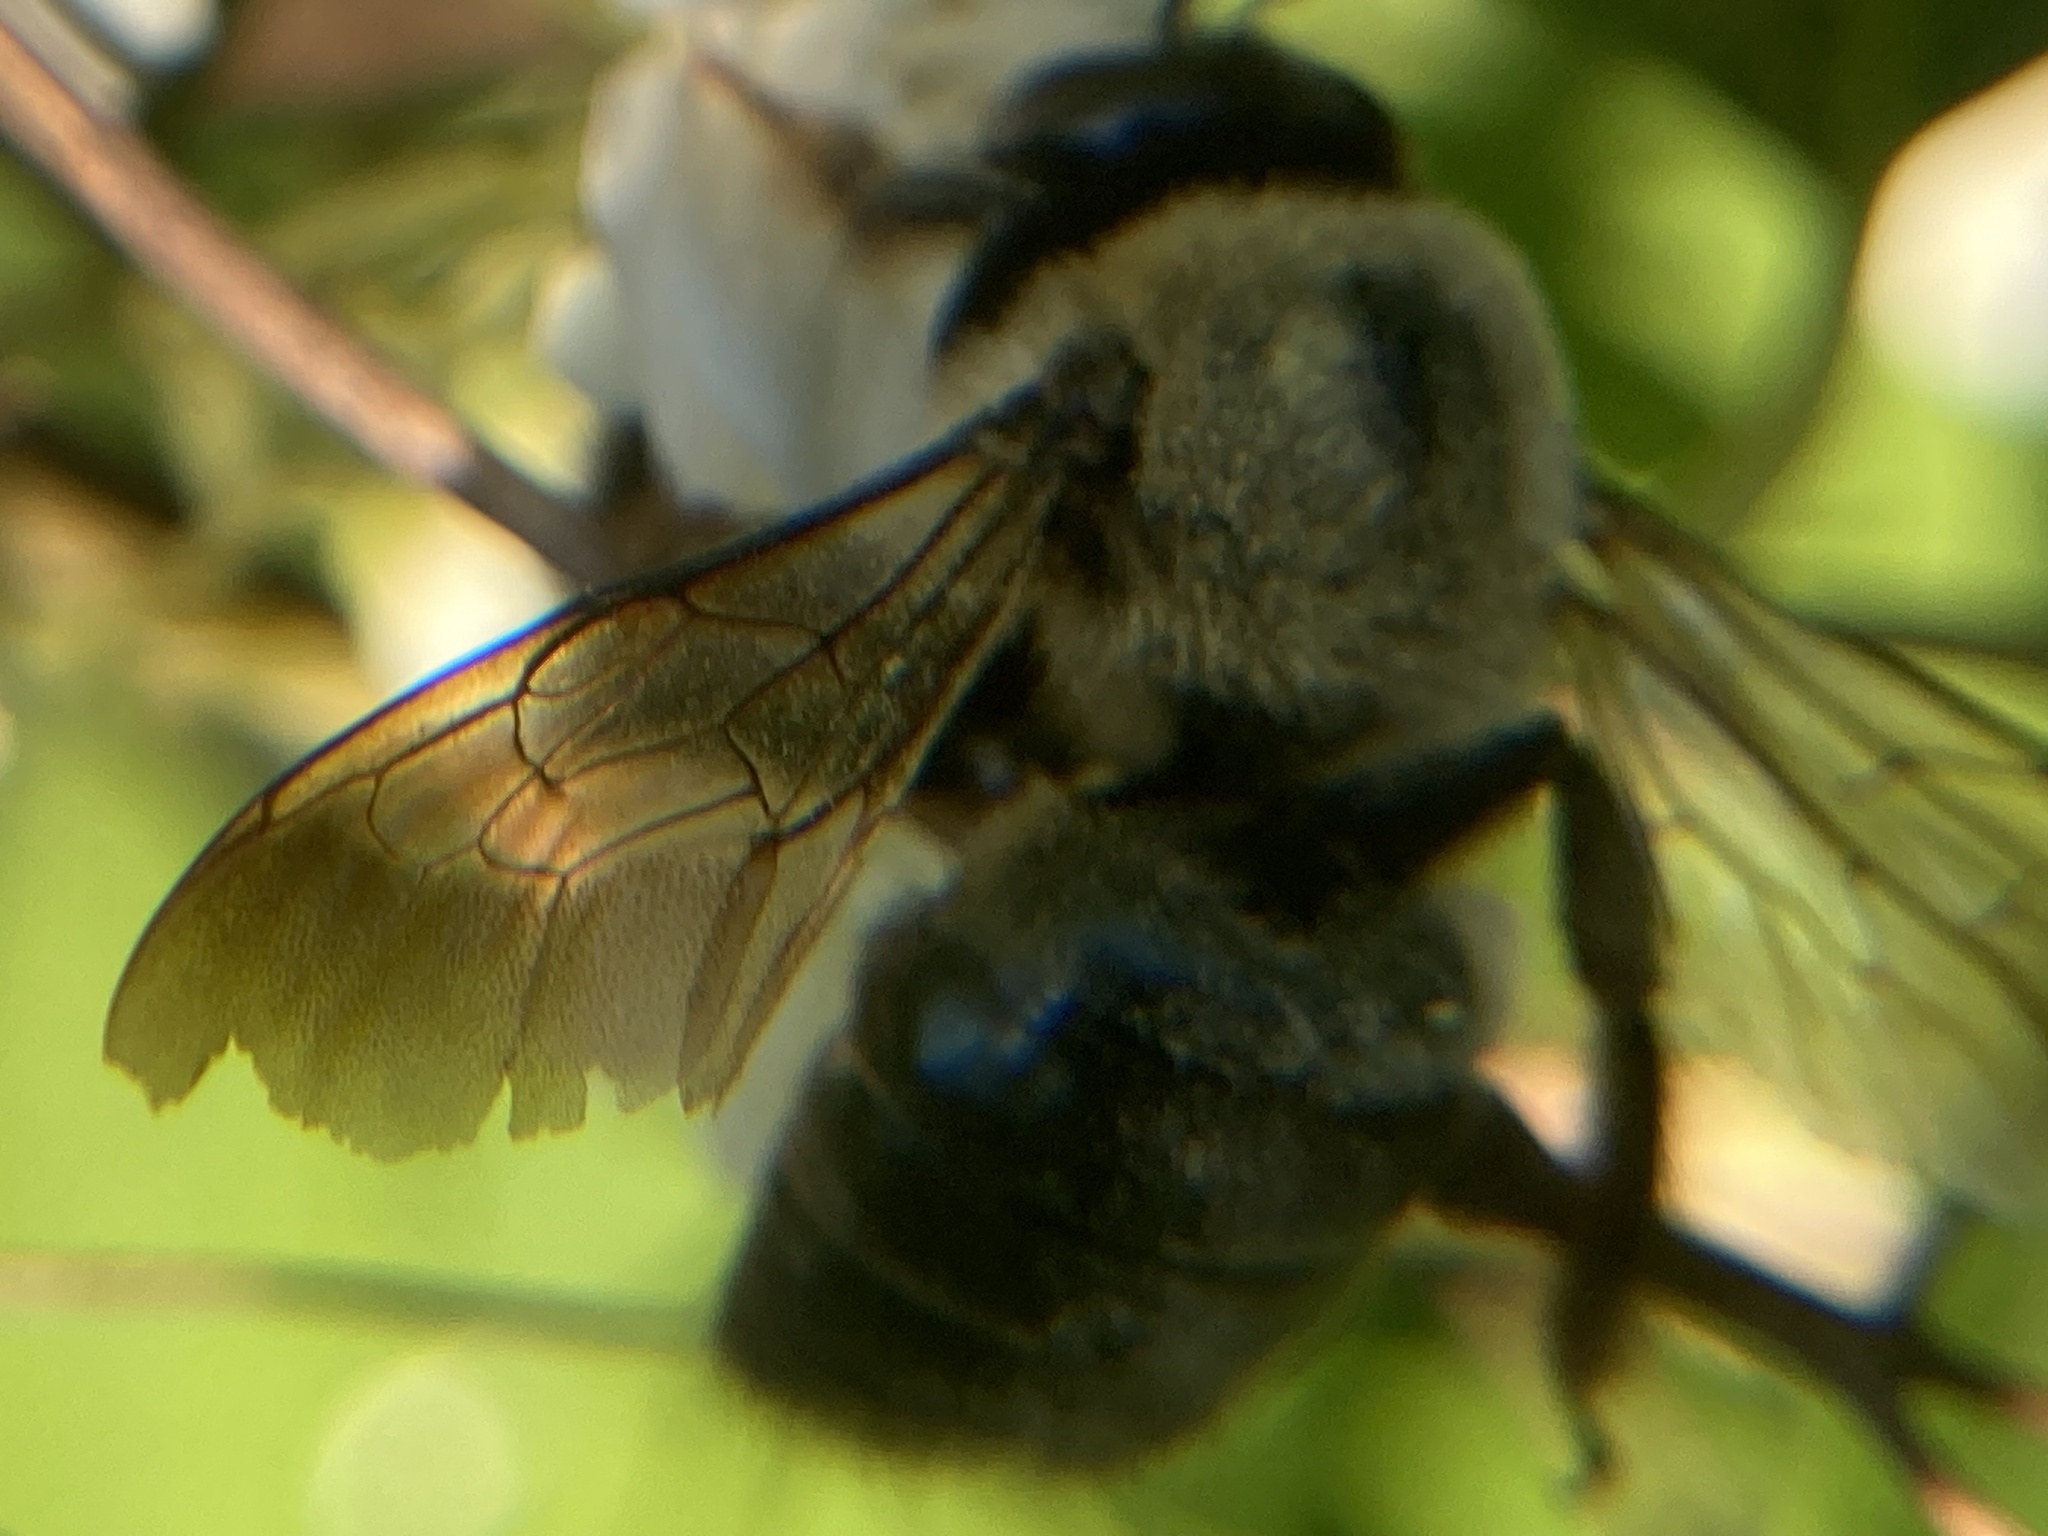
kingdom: Animalia
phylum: Arthropoda
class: Insecta
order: Hymenoptera
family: Apidae
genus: Xylocopa
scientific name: Xylocopa virginica
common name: Carpenter bee
